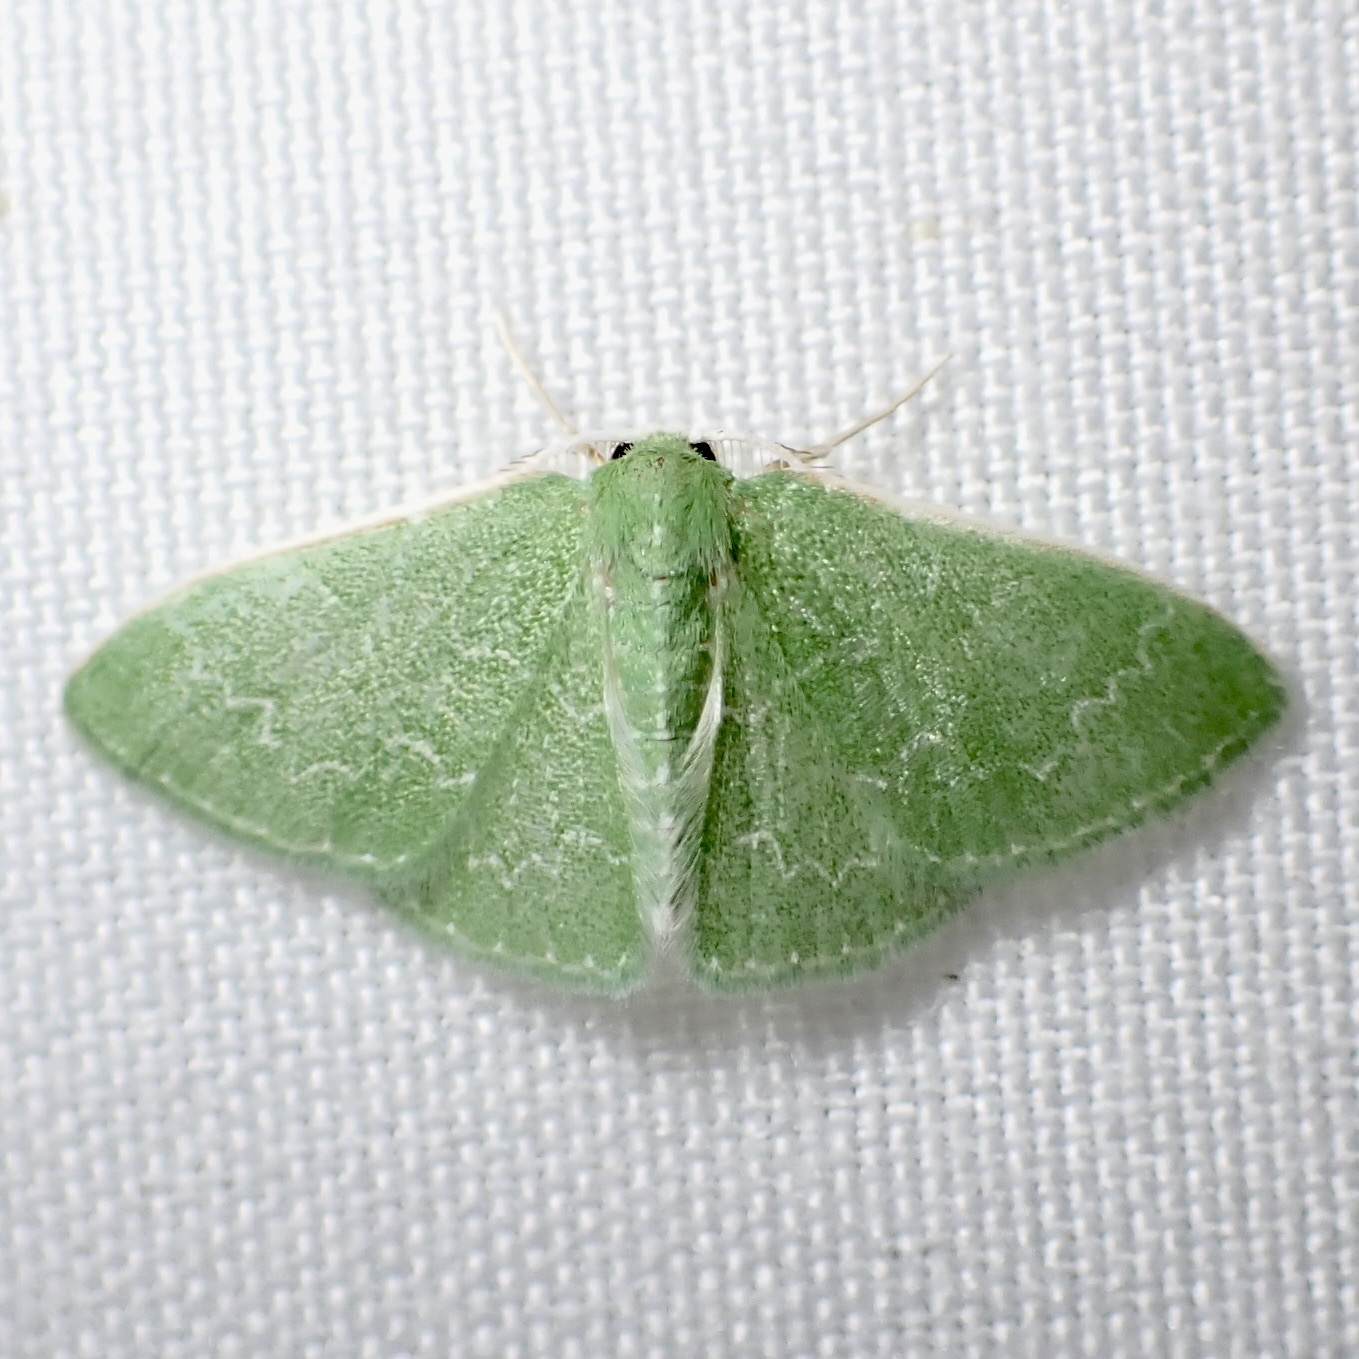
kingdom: Animalia
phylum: Arthropoda
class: Insecta
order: Lepidoptera
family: Geometridae
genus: Synchlora
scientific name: Synchlora frondaria
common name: Southern emerald
